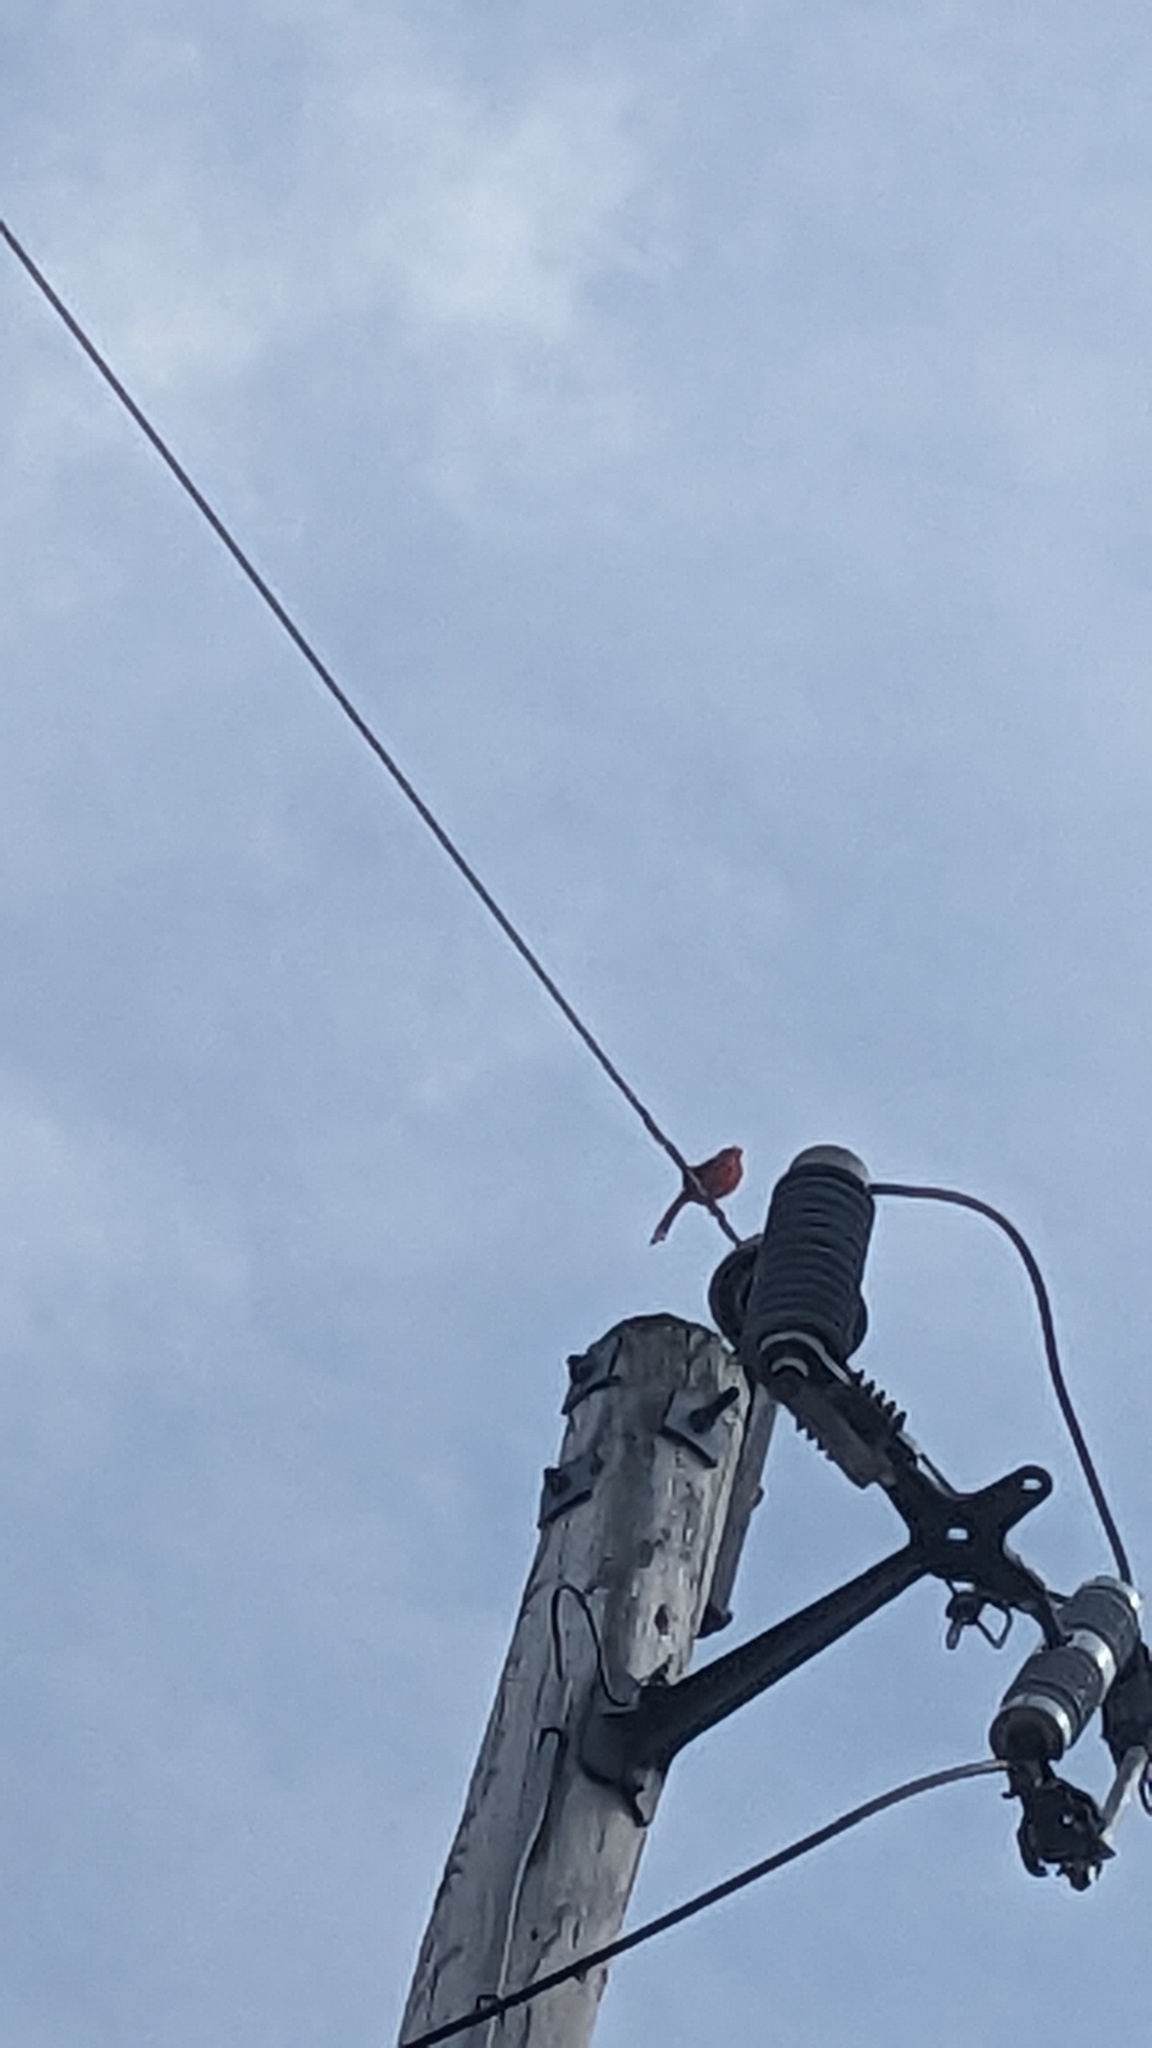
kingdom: Animalia
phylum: Chordata
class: Aves
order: Passeriformes
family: Cardinalidae
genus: Cardinalis
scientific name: Cardinalis cardinalis
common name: Northern cardinal
